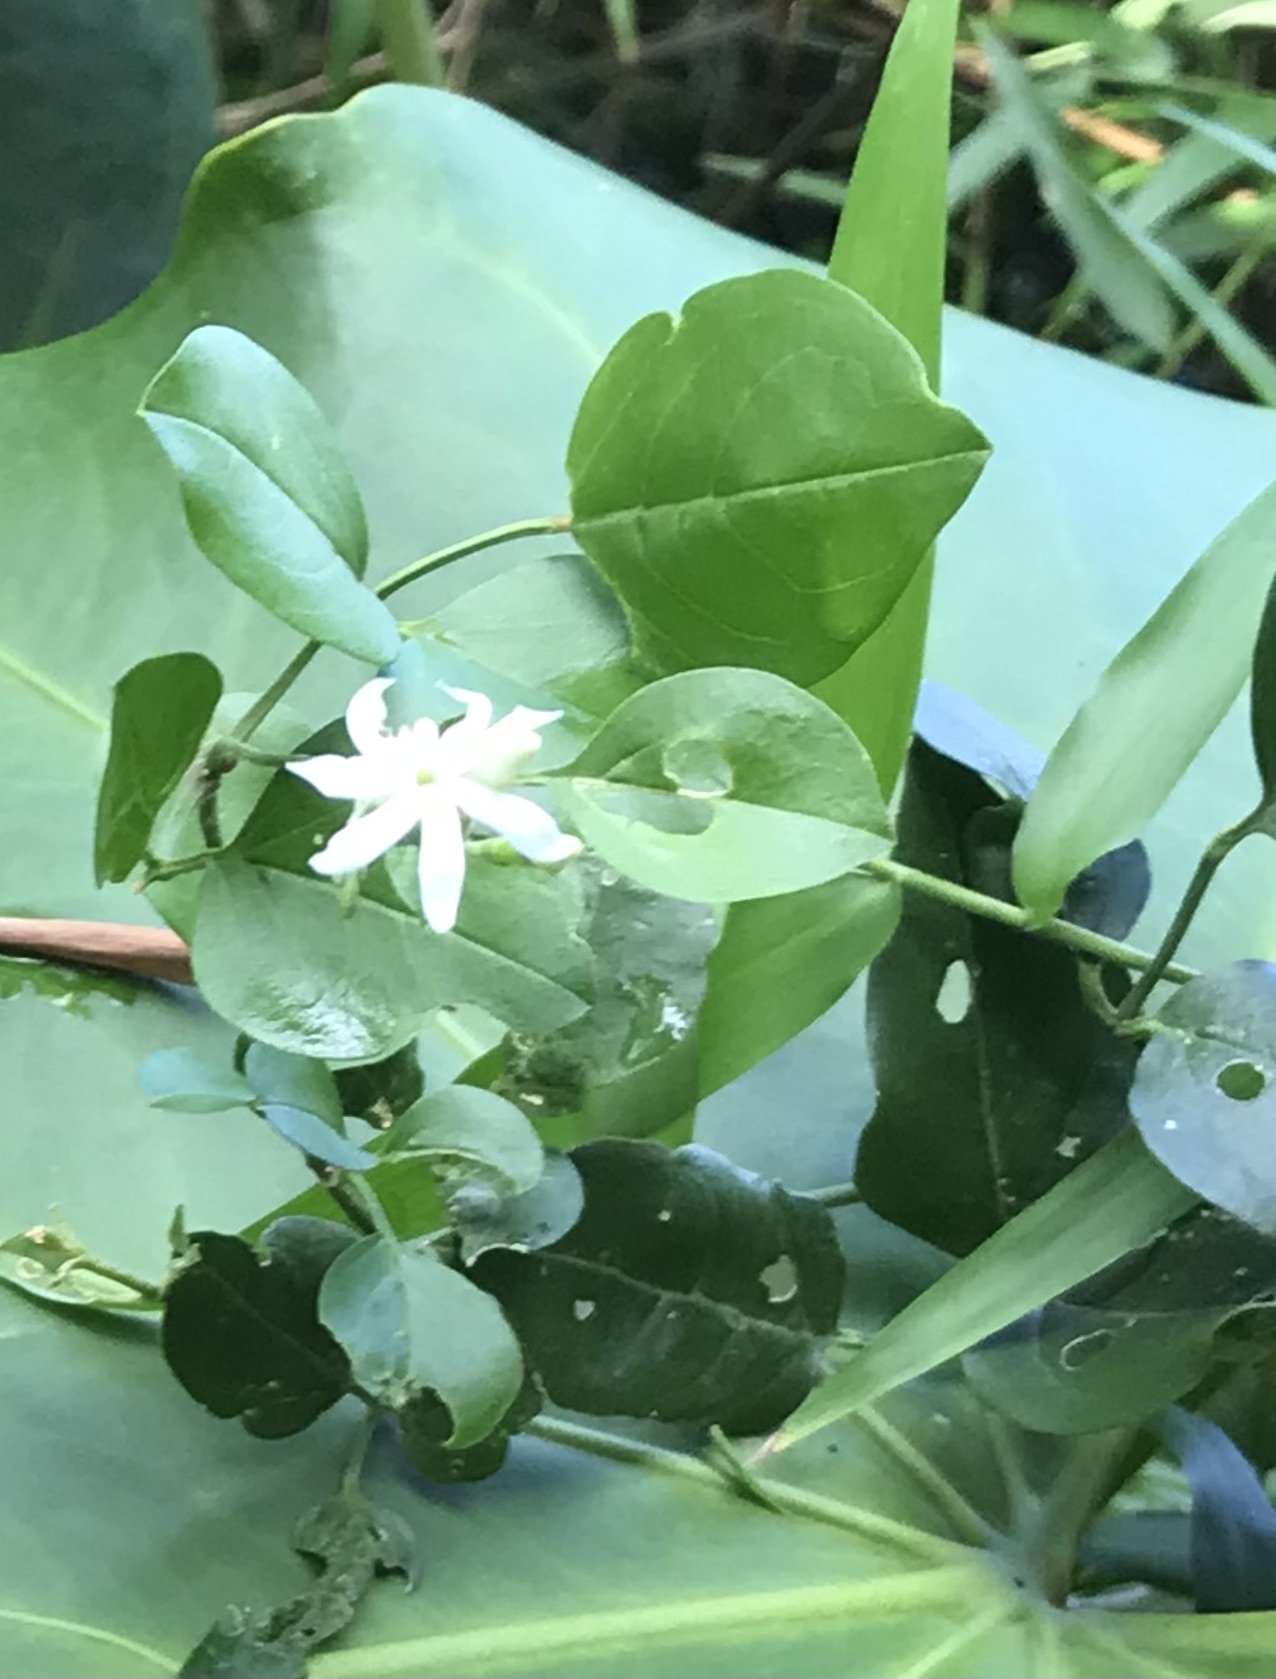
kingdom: Plantae
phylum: Tracheophyta
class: Magnoliopsida
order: Lamiales
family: Oleaceae
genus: Jasminum
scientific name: Jasminum fluminense
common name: Brazilian jasmine
